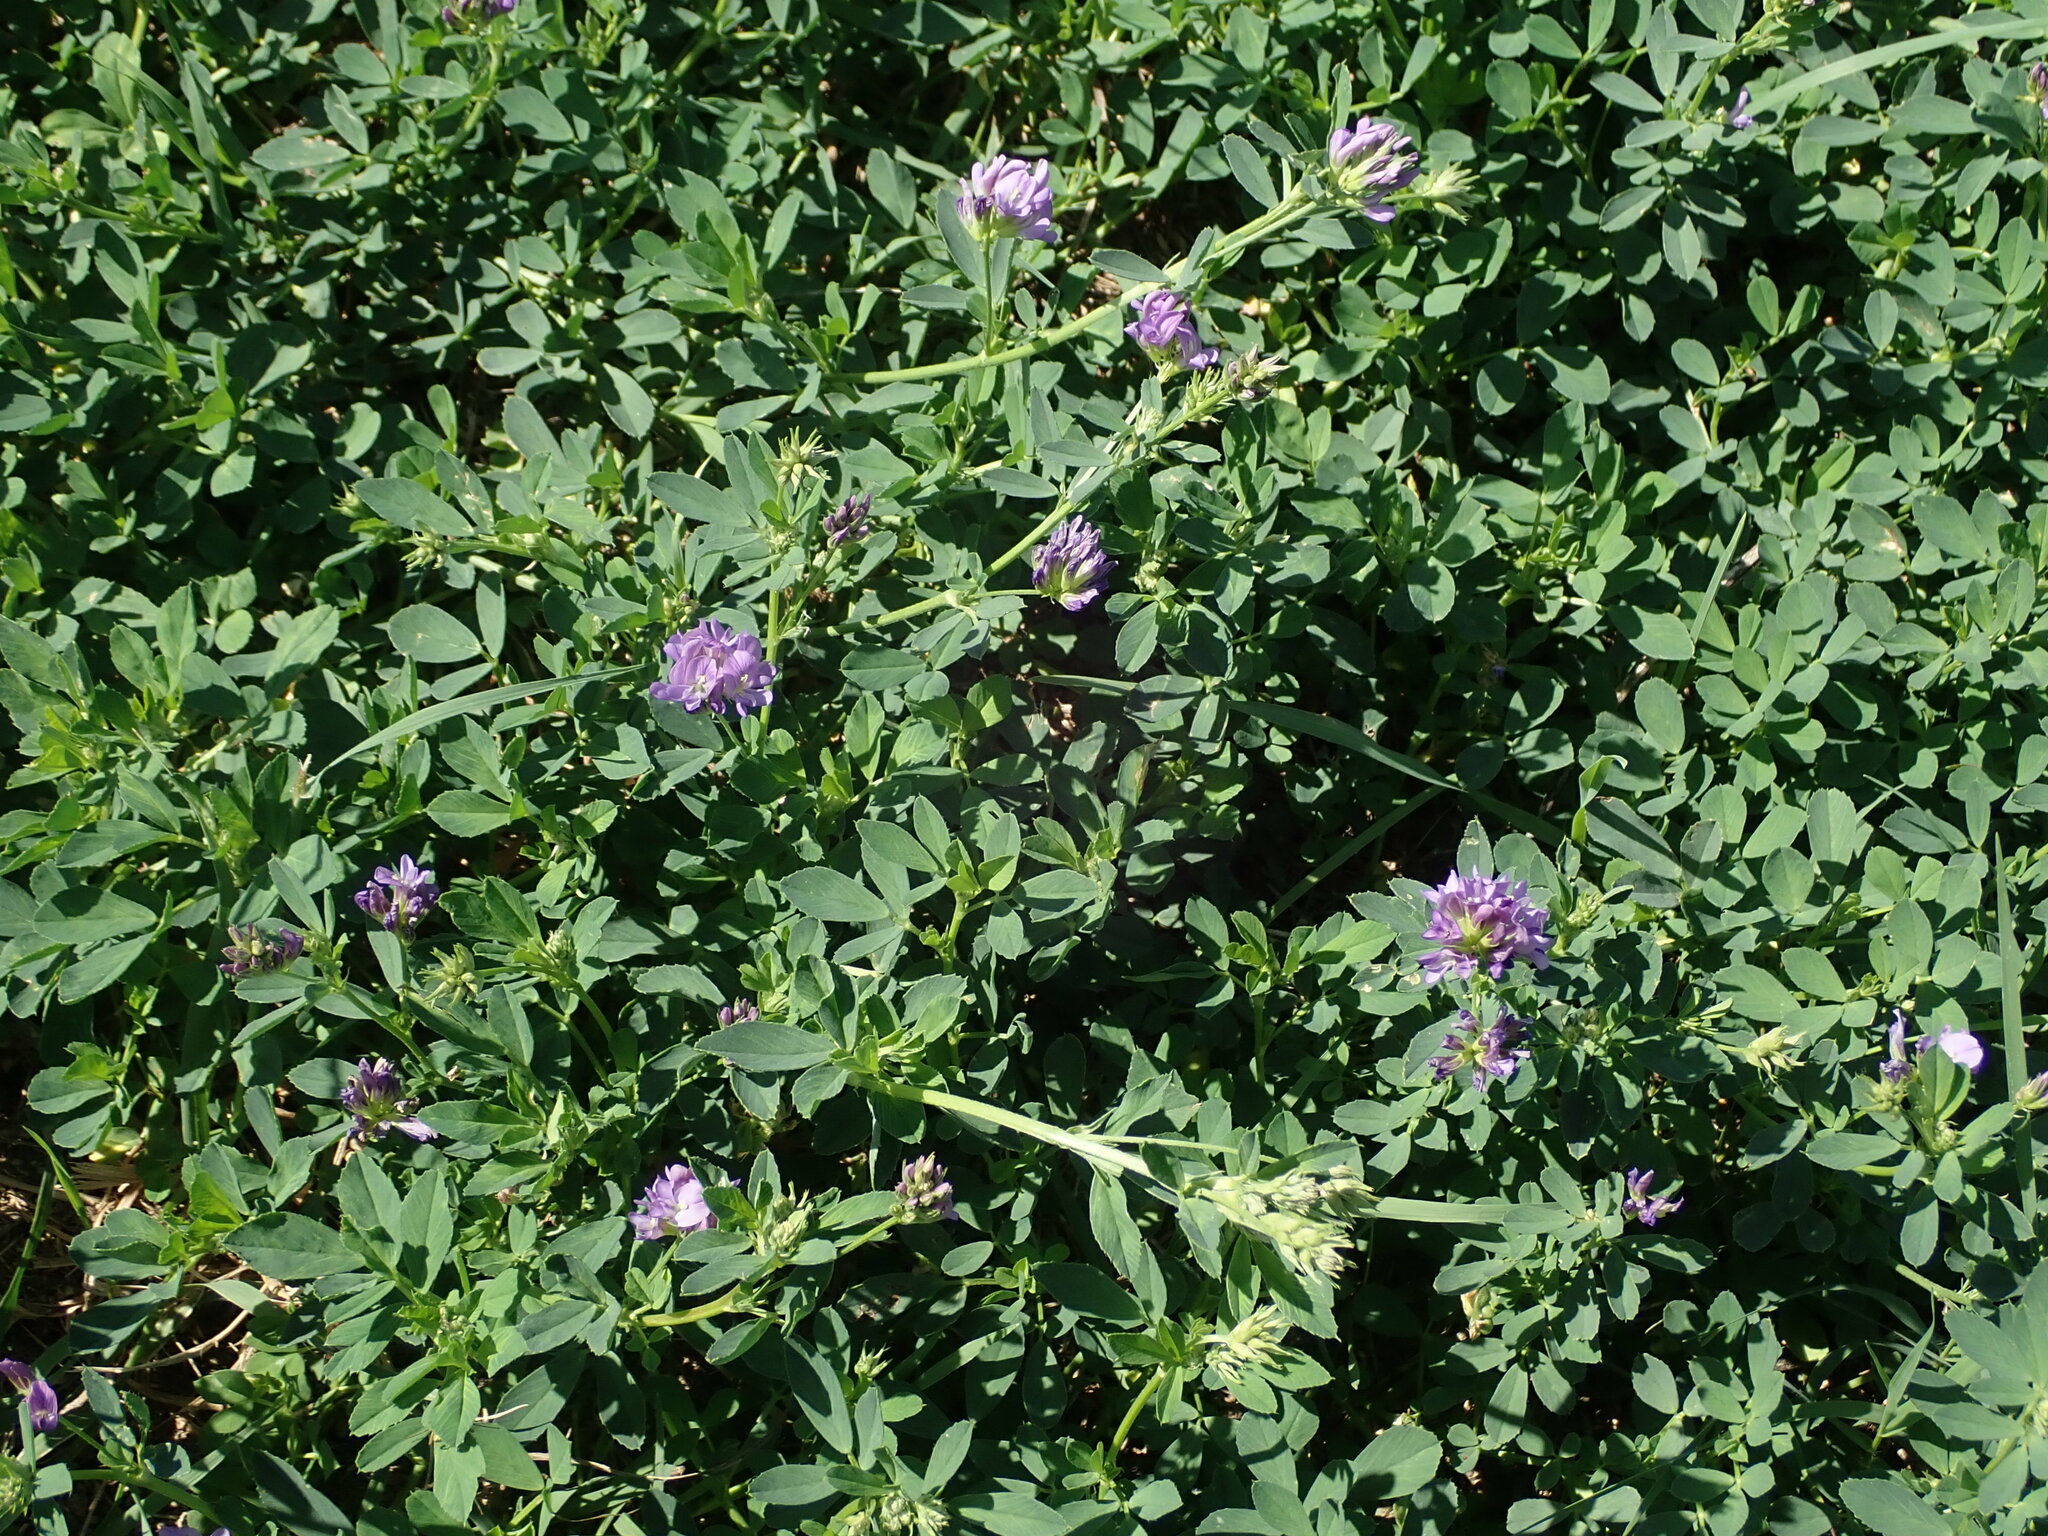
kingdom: Plantae
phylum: Tracheophyta
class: Magnoliopsida
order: Fabales
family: Fabaceae
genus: Medicago
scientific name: Medicago sativa
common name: Alfalfa
